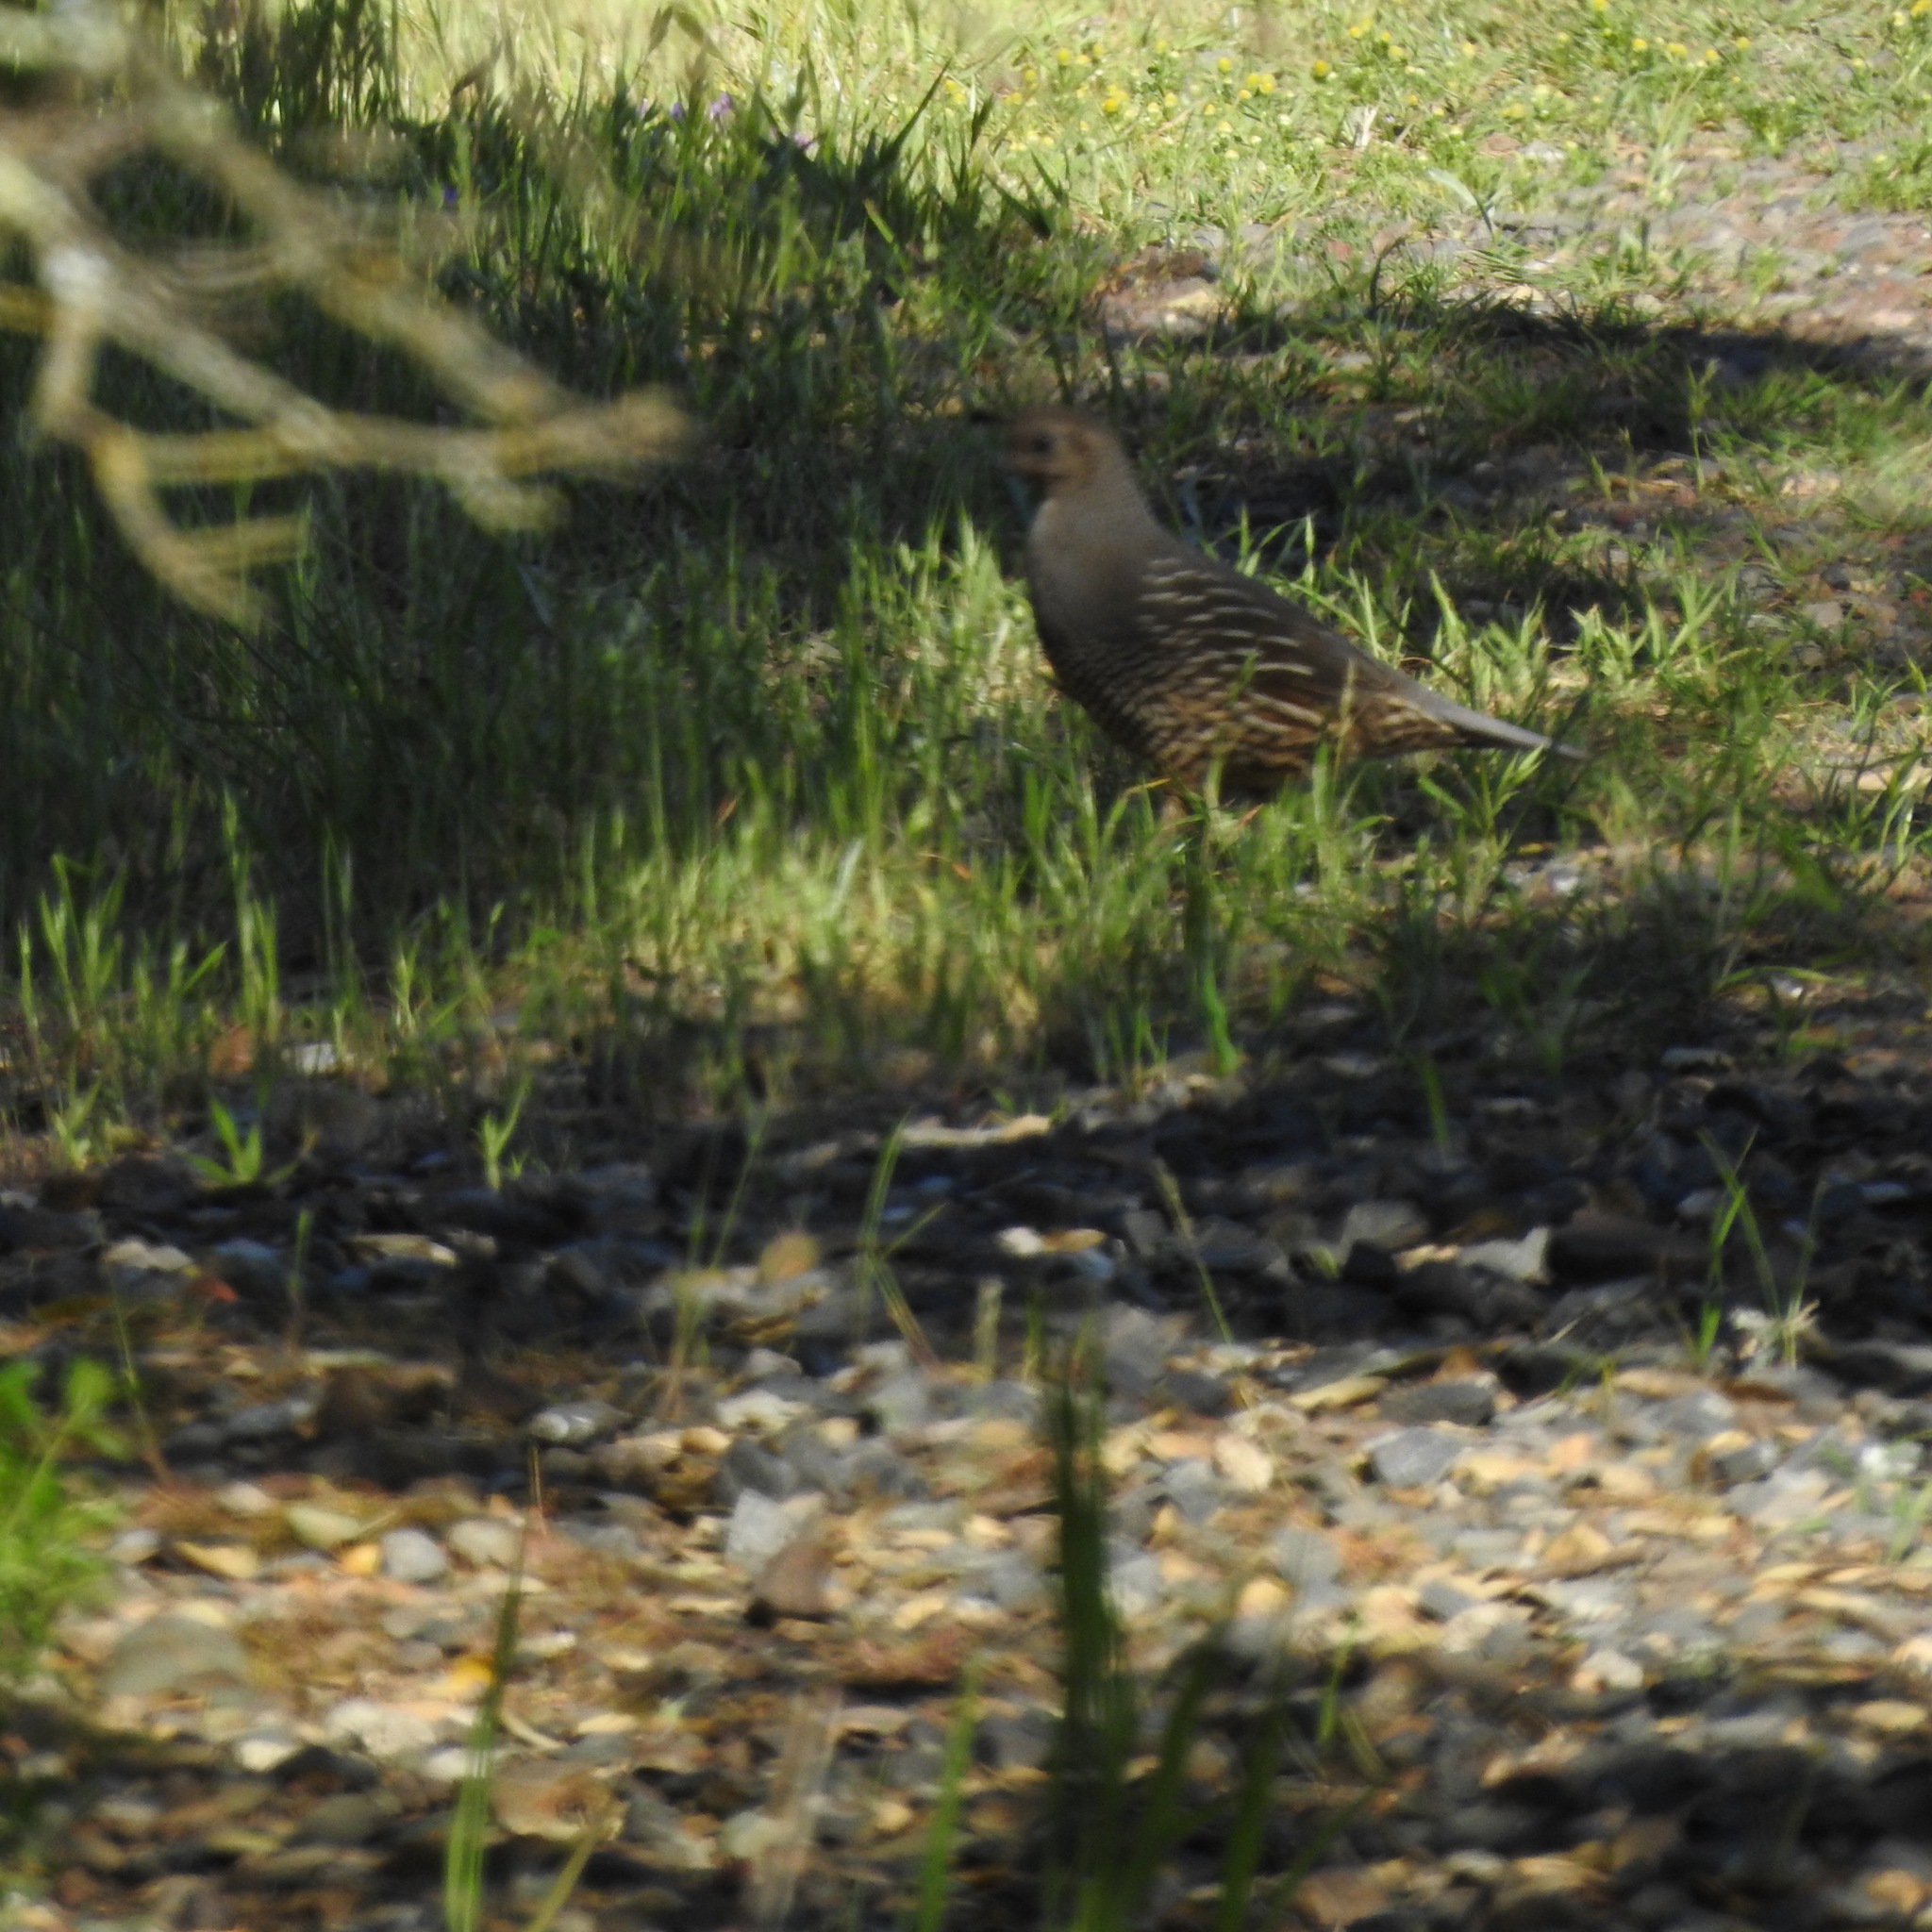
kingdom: Animalia
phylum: Chordata
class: Aves
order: Galliformes
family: Odontophoridae
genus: Callipepla
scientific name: Callipepla californica
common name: California quail
